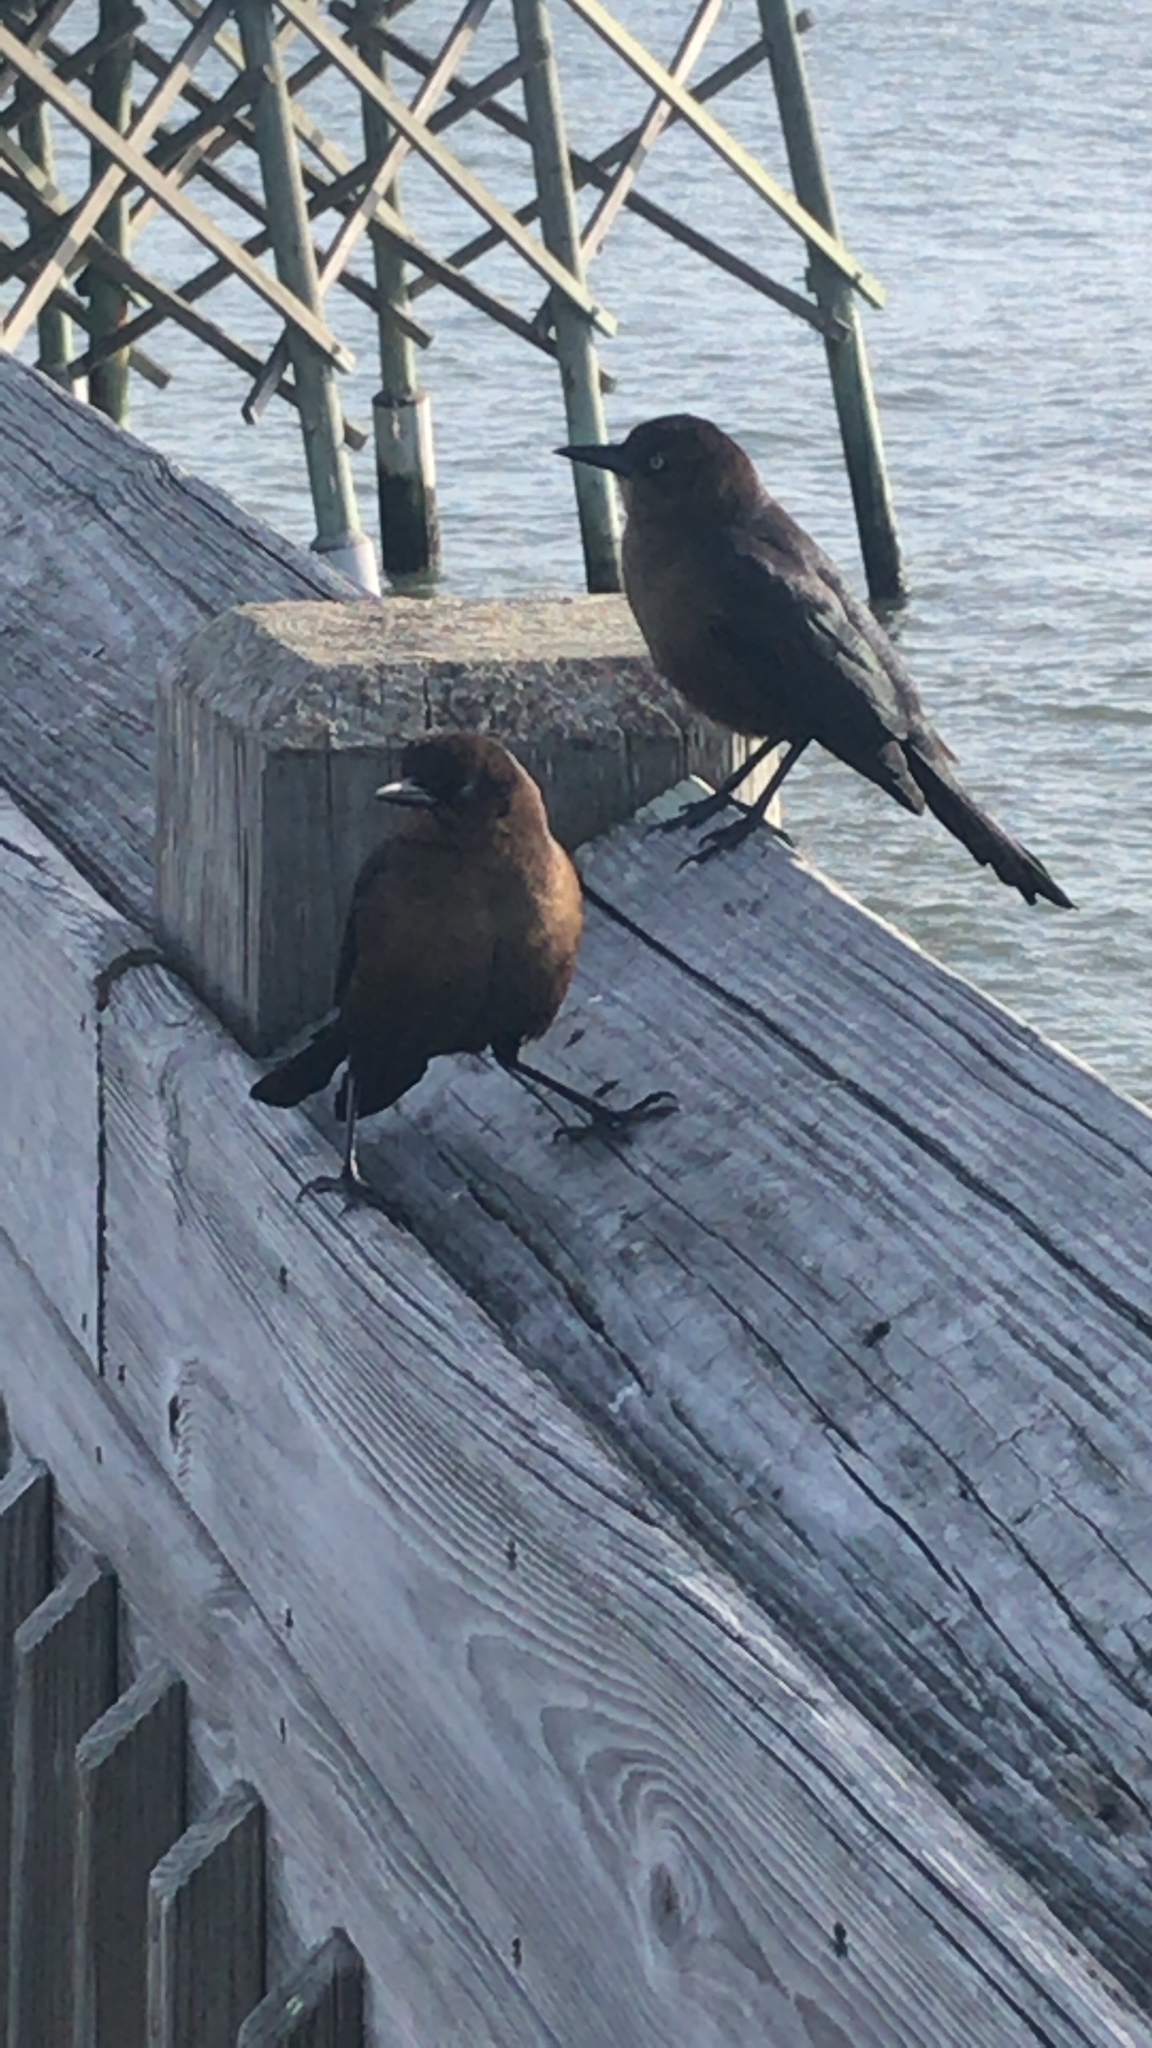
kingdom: Animalia
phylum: Chordata
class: Aves
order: Passeriformes
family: Icteridae
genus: Quiscalus
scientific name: Quiscalus major
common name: Boat-tailed grackle
